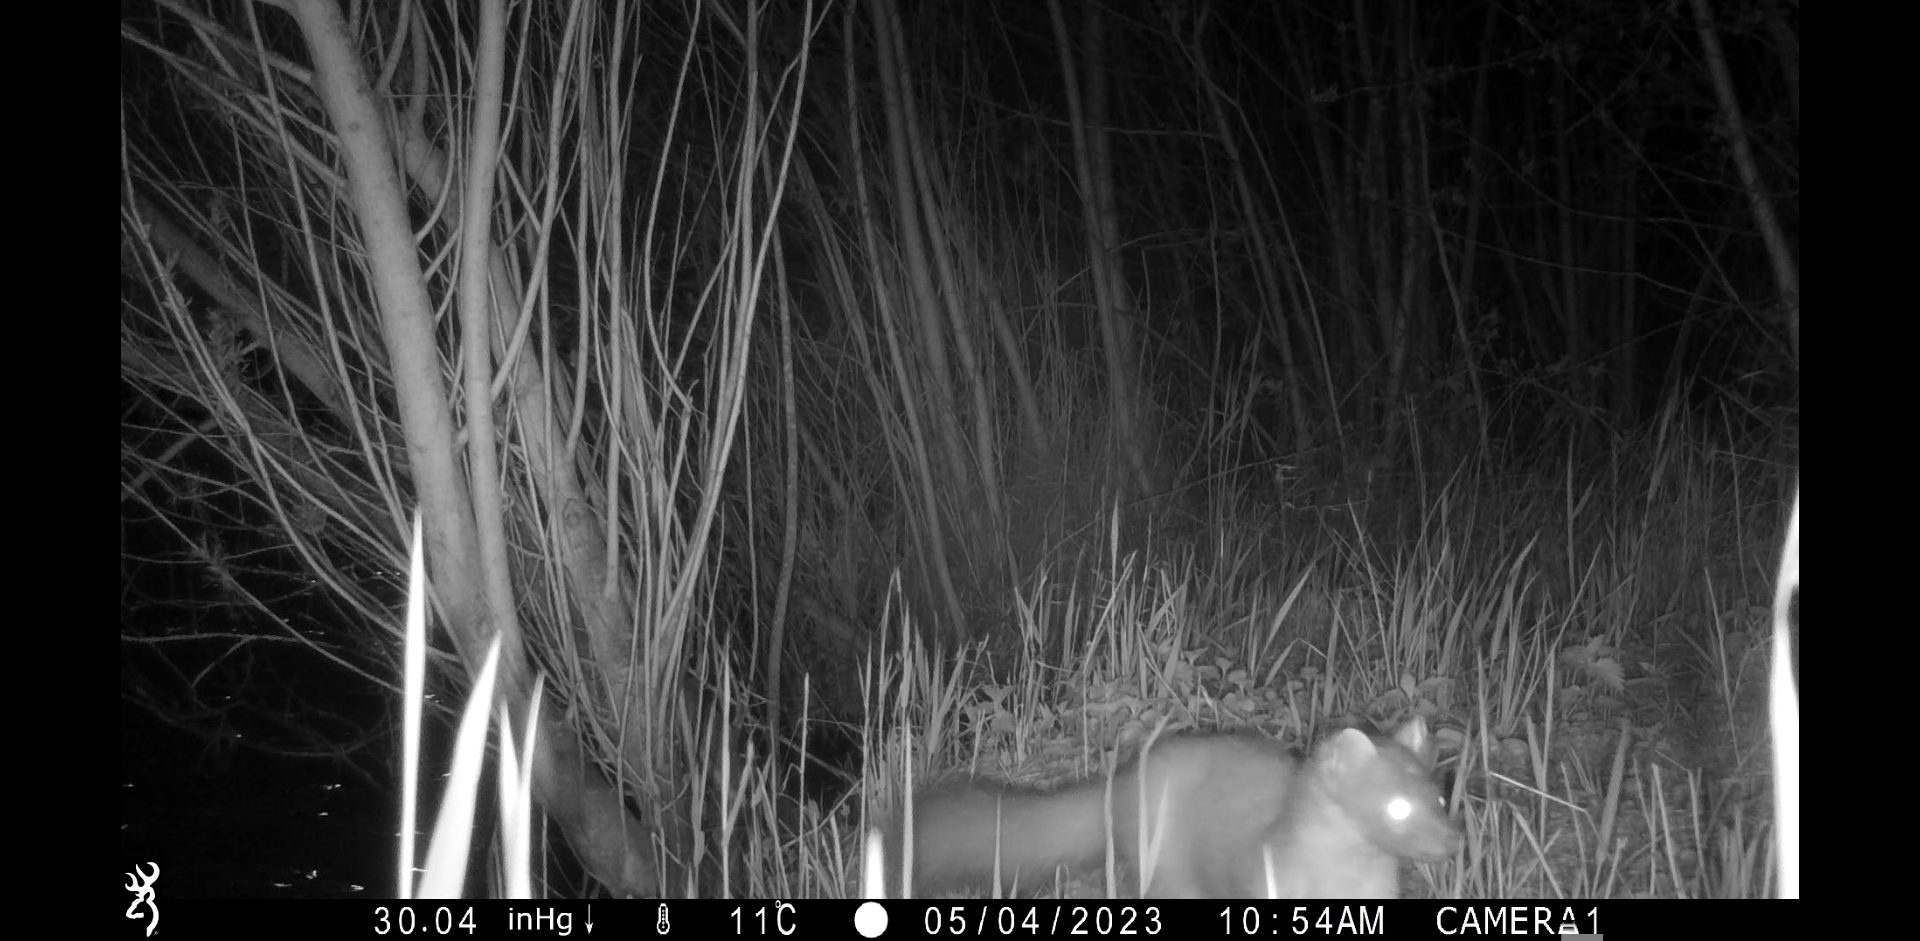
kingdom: Animalia
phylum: Chordata
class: Mammalia
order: Carnivora
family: Mustelidae
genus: Martes
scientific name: Martes martes
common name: European pine marten
